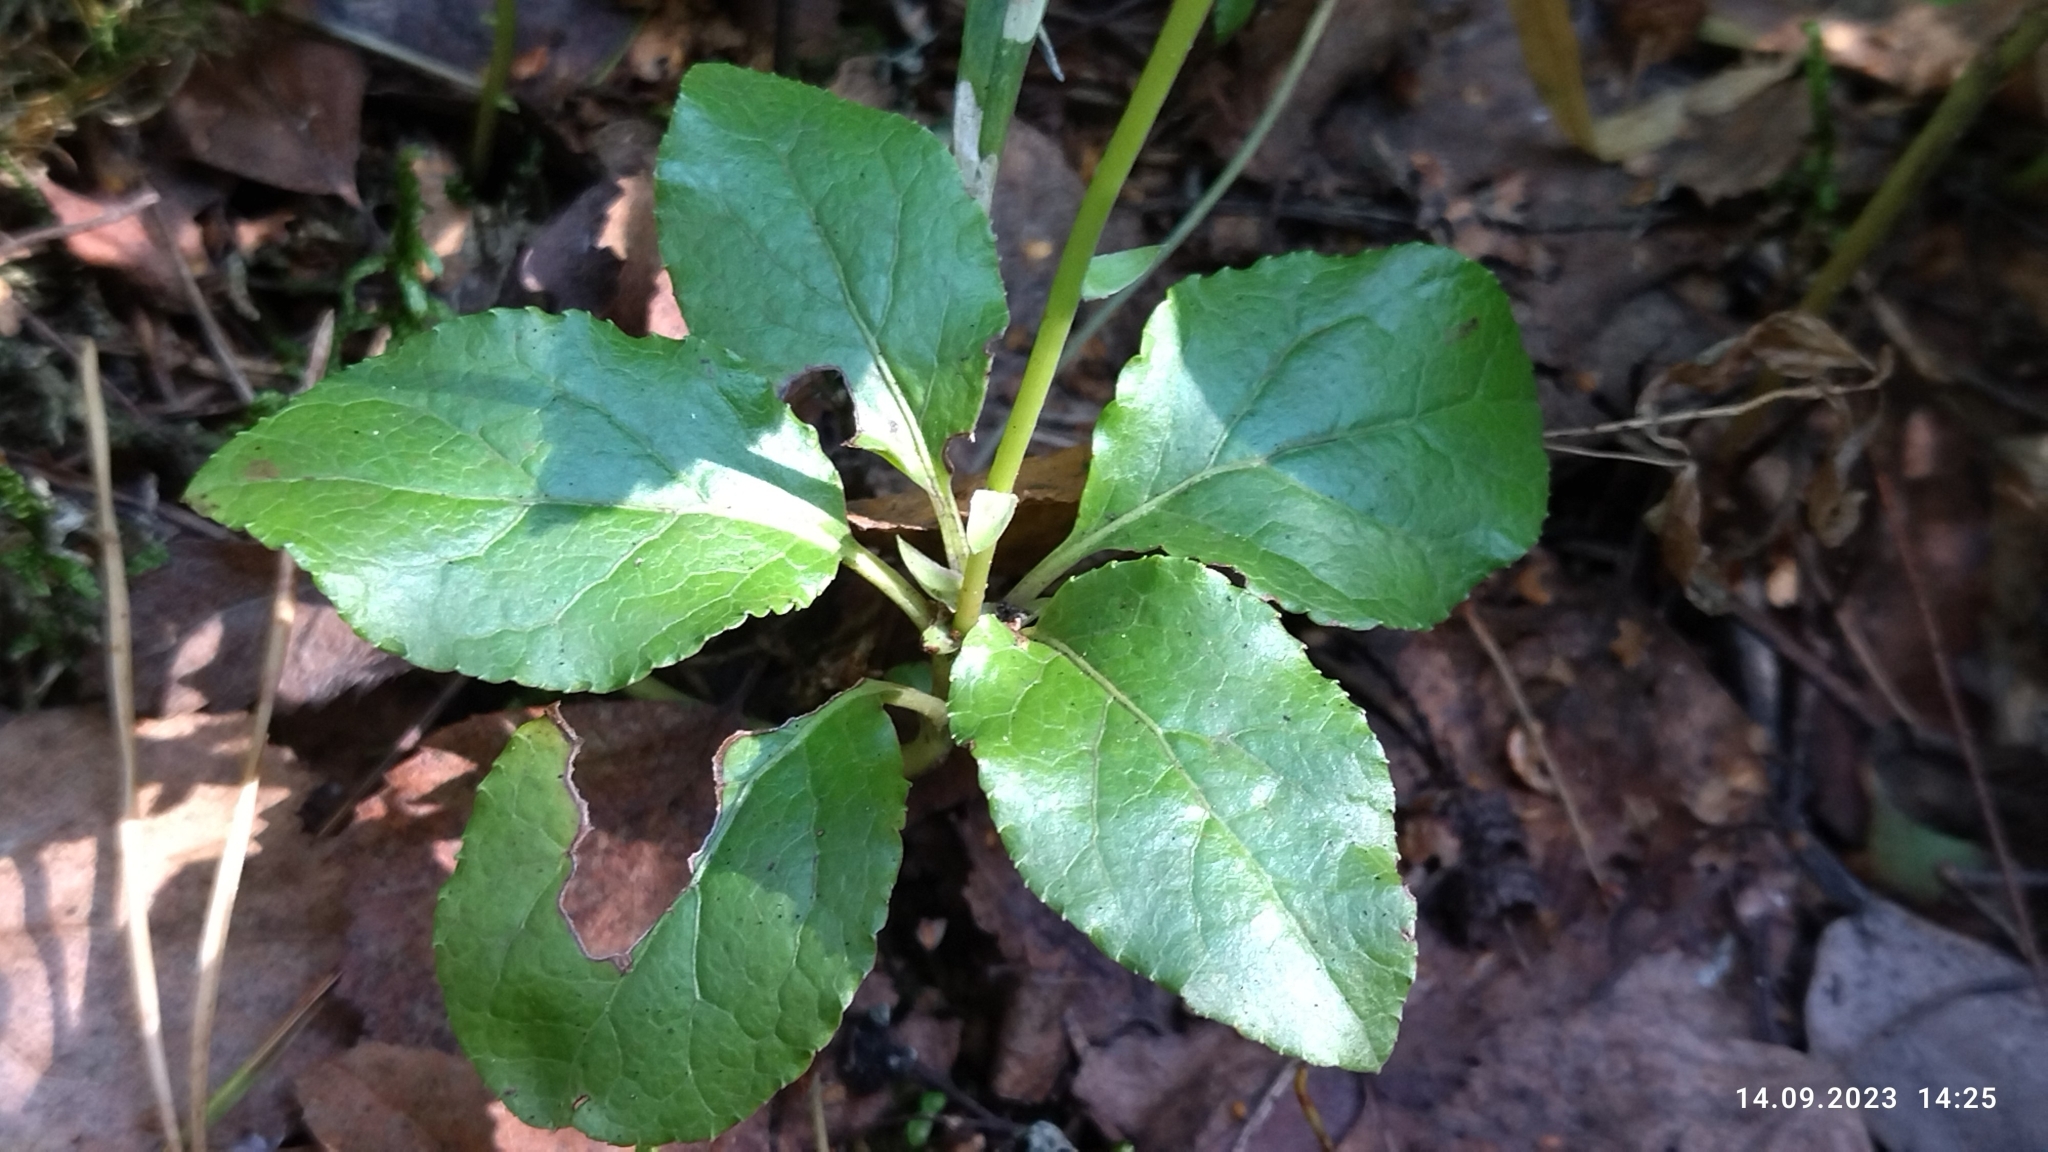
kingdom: Plantae
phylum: Tracheophyta
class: Magnoliopsida
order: Ericales
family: Ericaceae
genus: Orthilia
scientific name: Orthilia secunda
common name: One-sided orthilia
